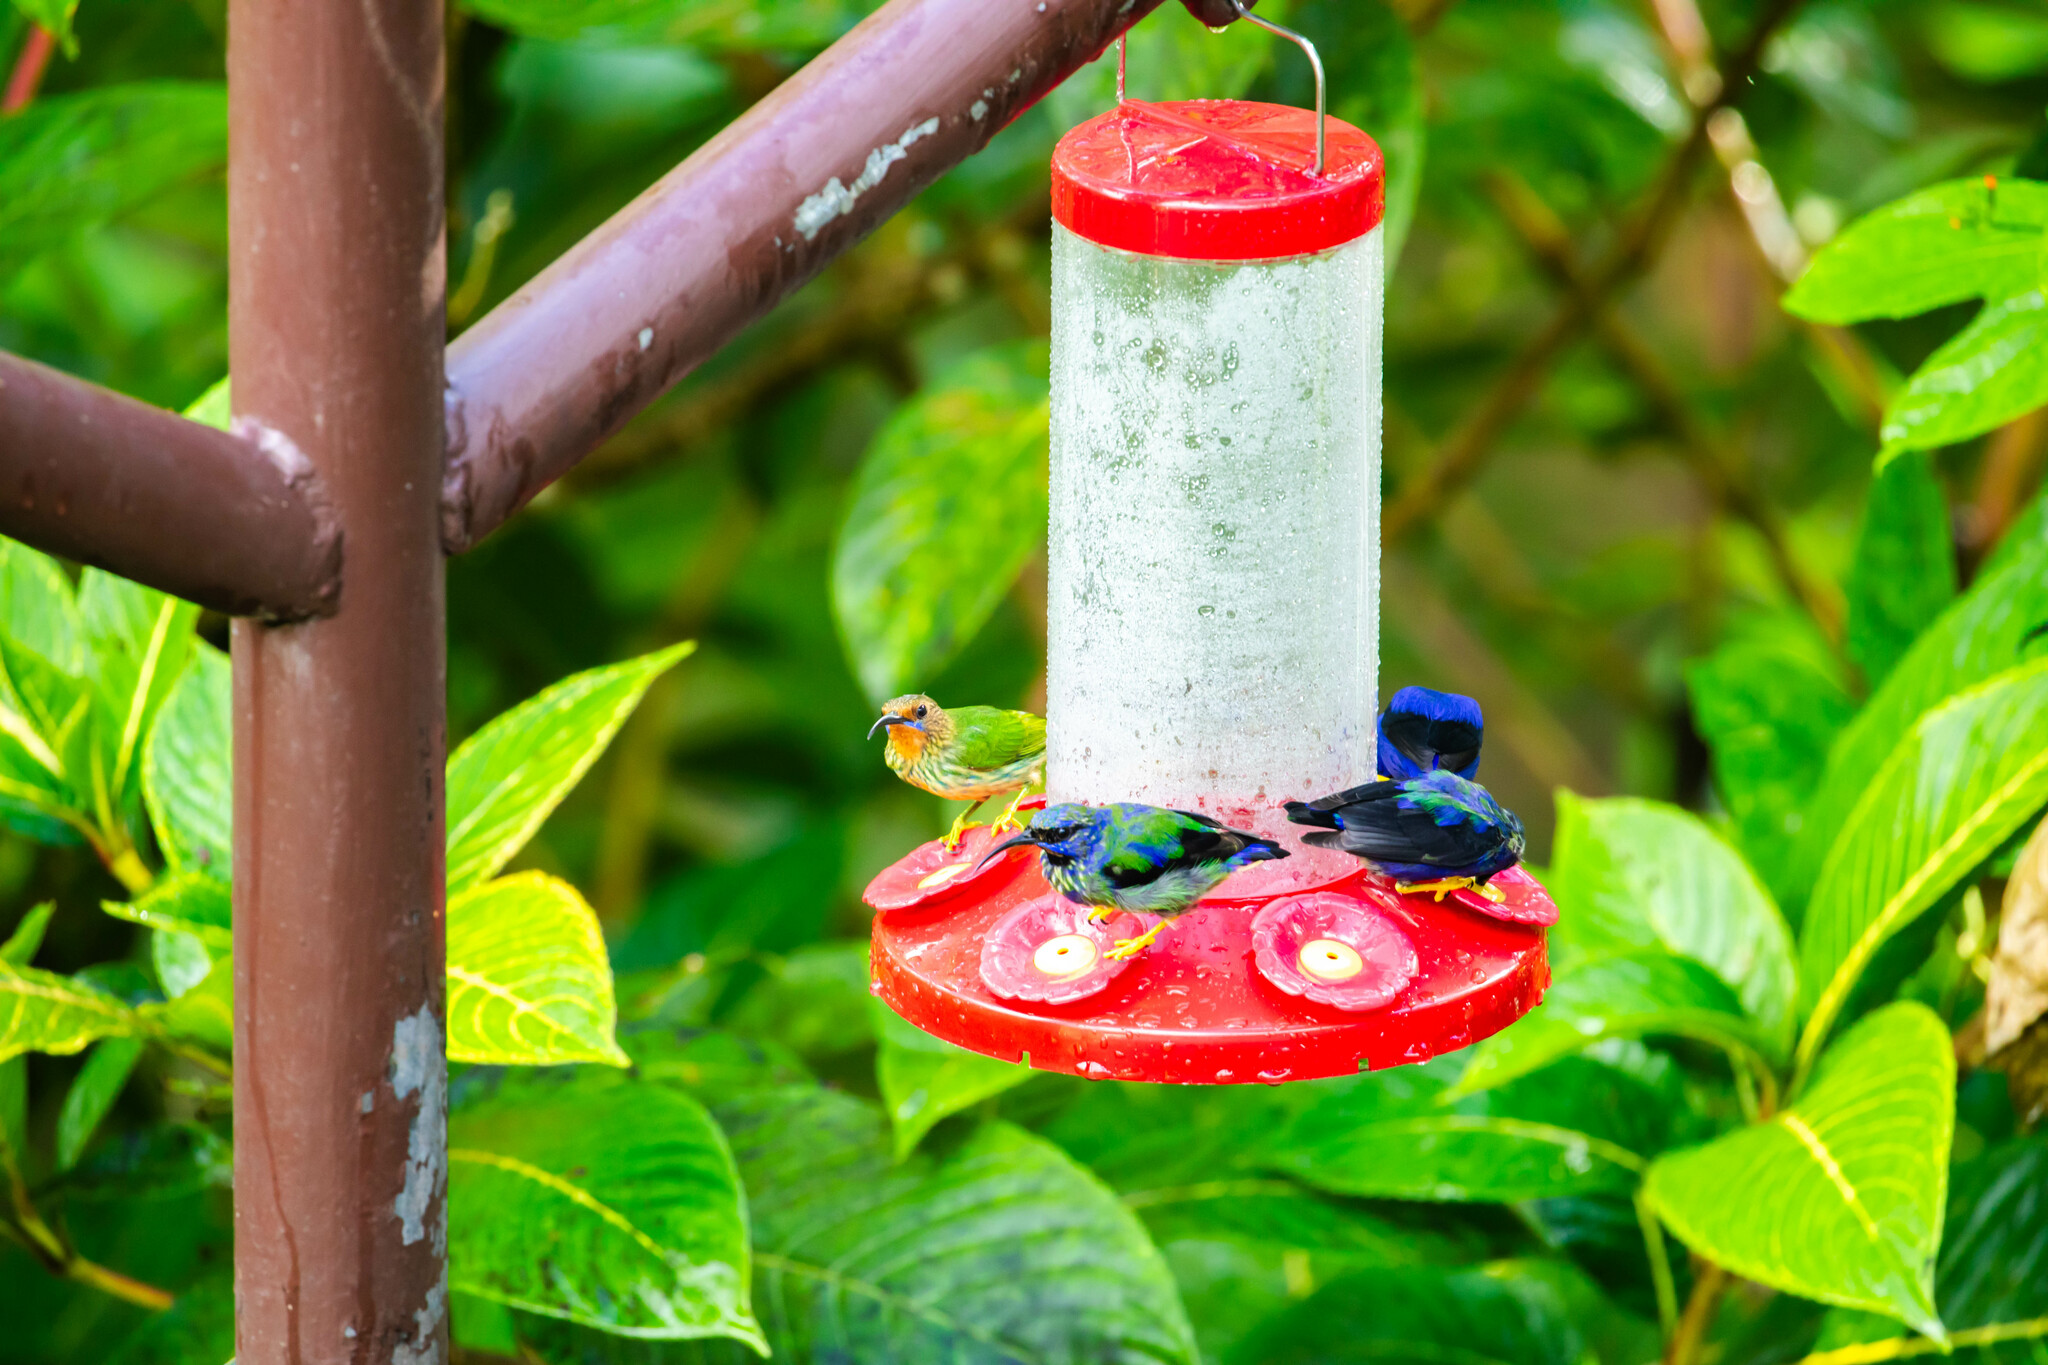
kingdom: Animalia
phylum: Chordata
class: Aves
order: Passeriformes
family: Thraupidae
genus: Cyanerpes
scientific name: Cyanerpes caeruleus
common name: Purple honeycreeper
